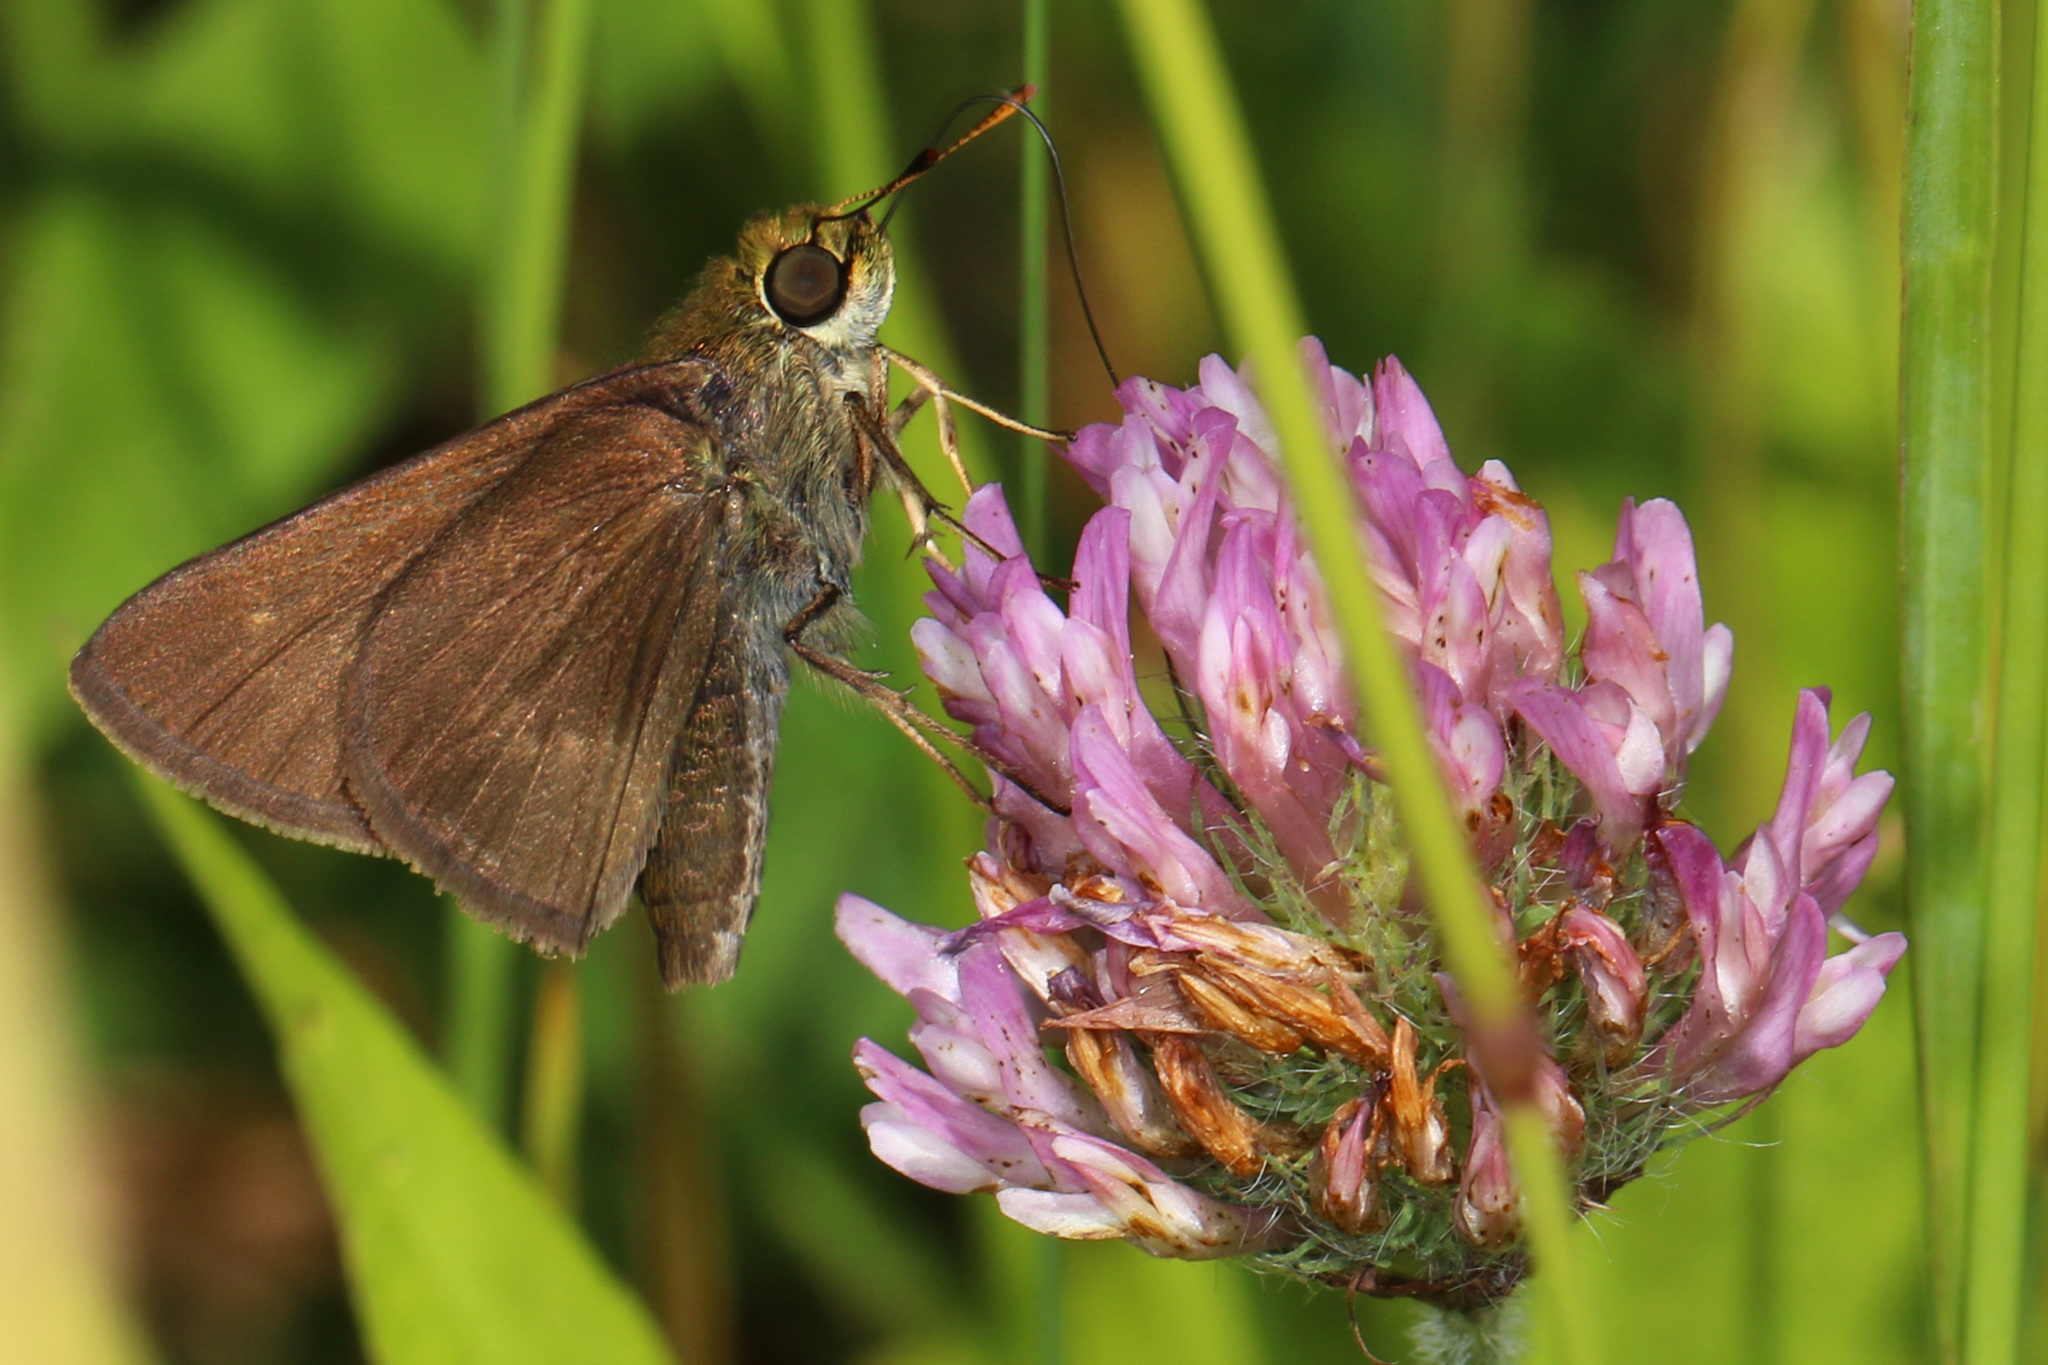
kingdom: Animalia
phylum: Arthropoda
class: Insecta
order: Lepidoptera
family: Hesperiidae
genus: Euphyes
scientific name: Euphyes vestris
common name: Dun skipper
